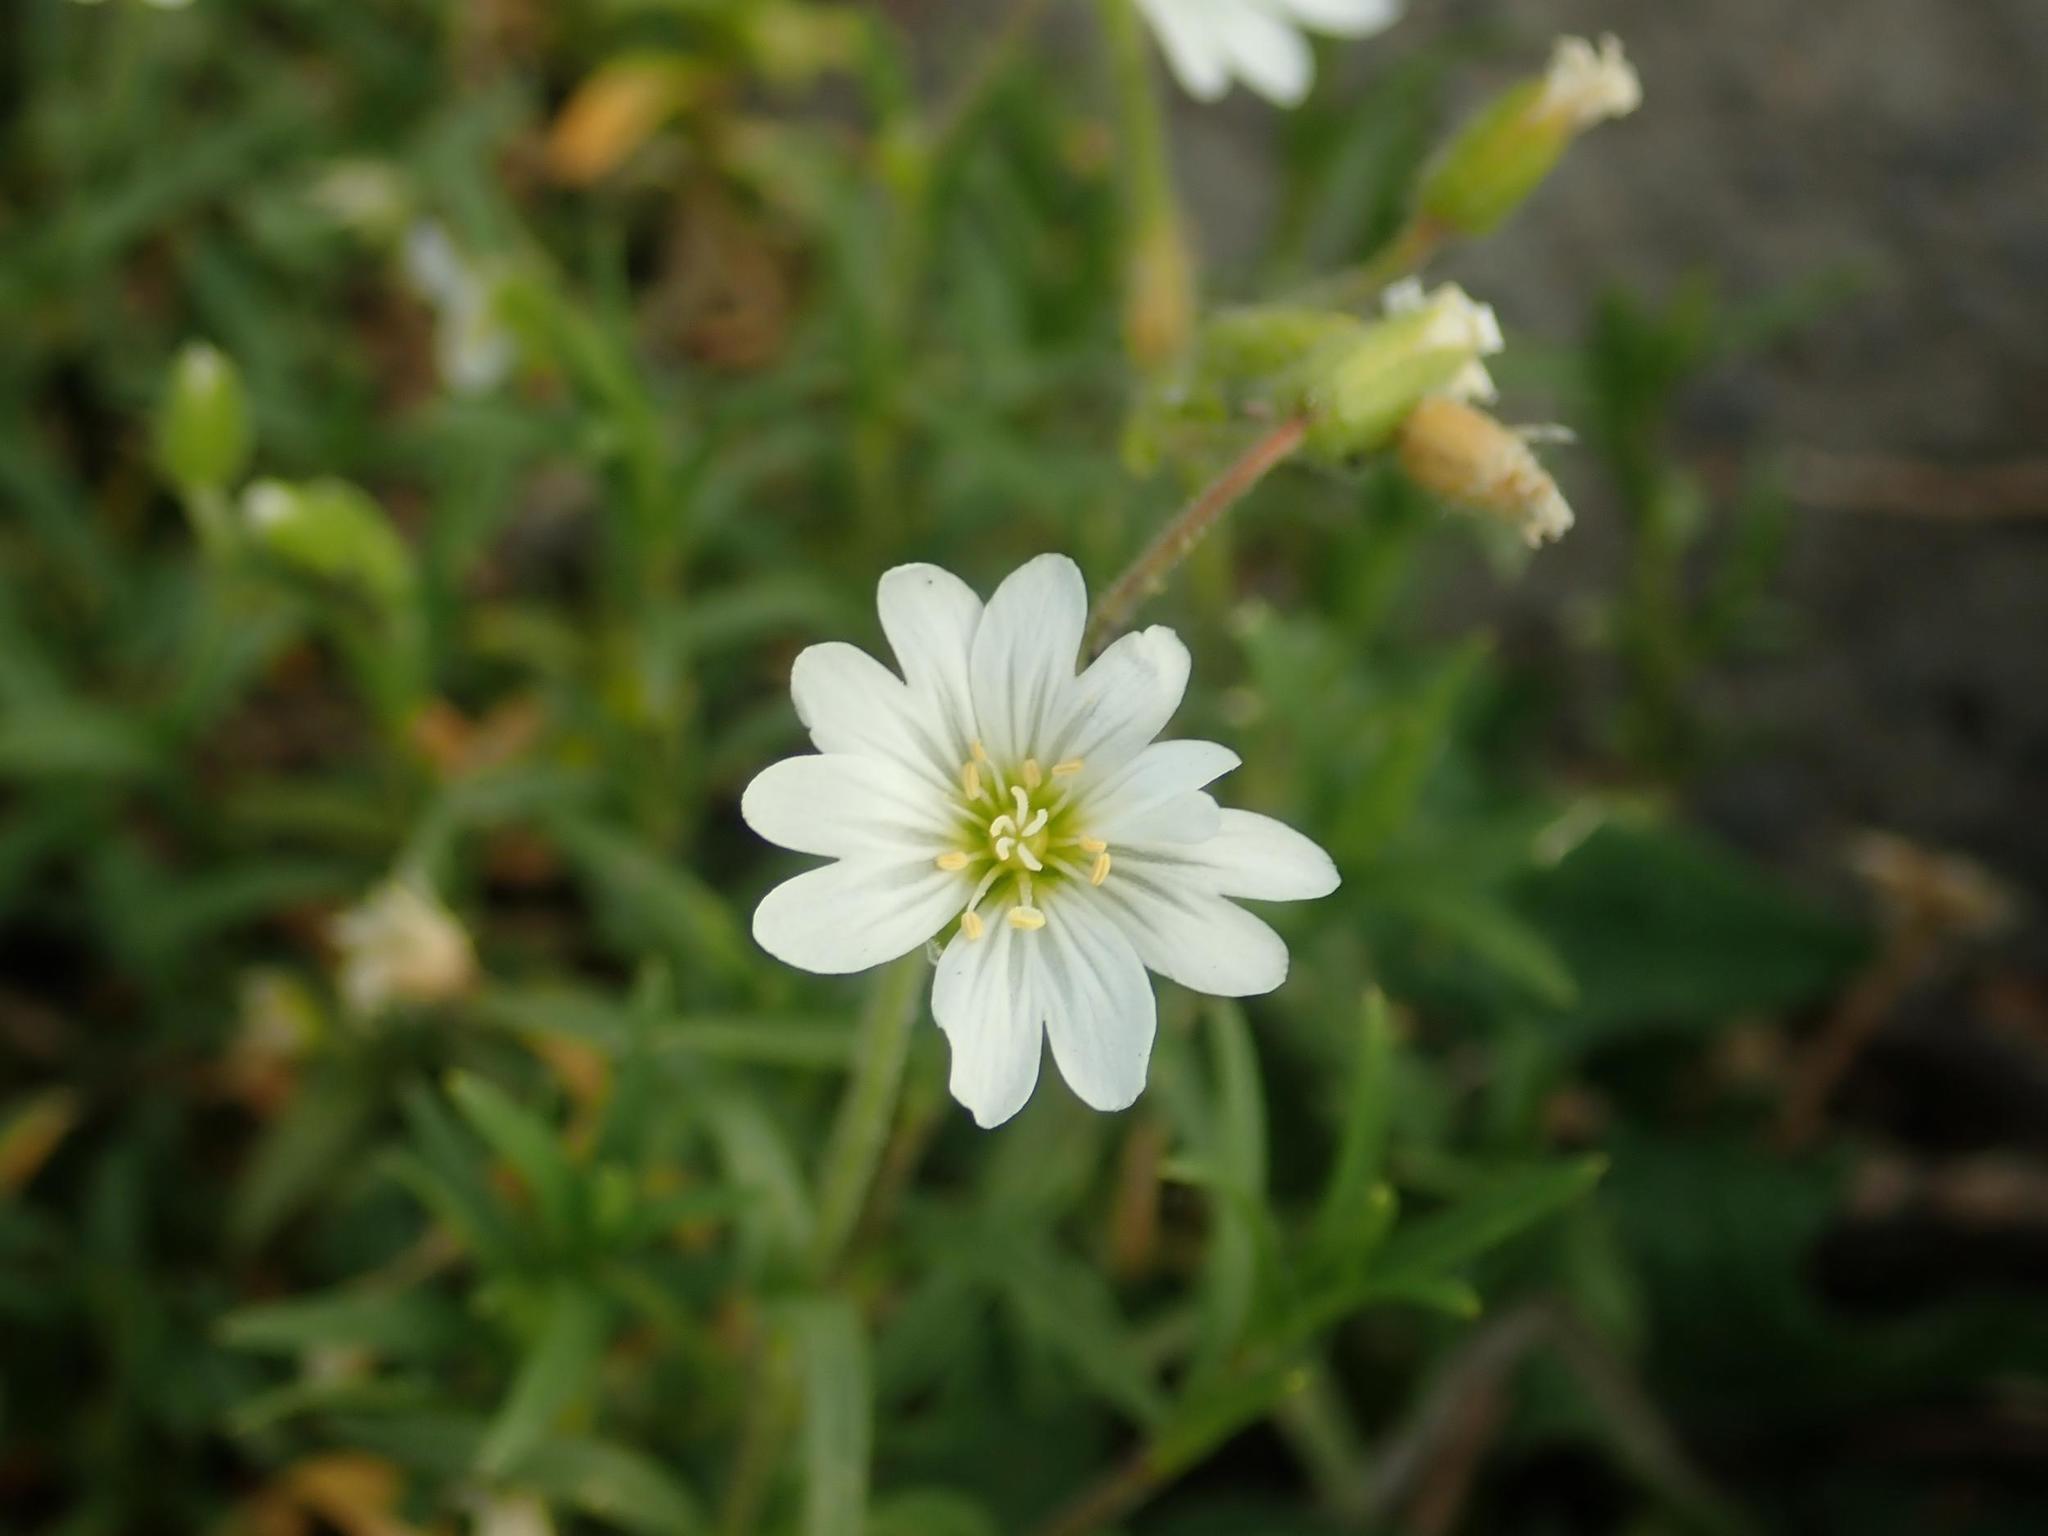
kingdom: Plantae
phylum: Tracheophyta
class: Magnoliopsida
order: Caryophyllales
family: Caryophyllaceae
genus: Cerastium
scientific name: Cerastium arvense
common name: Field mouse-ear
